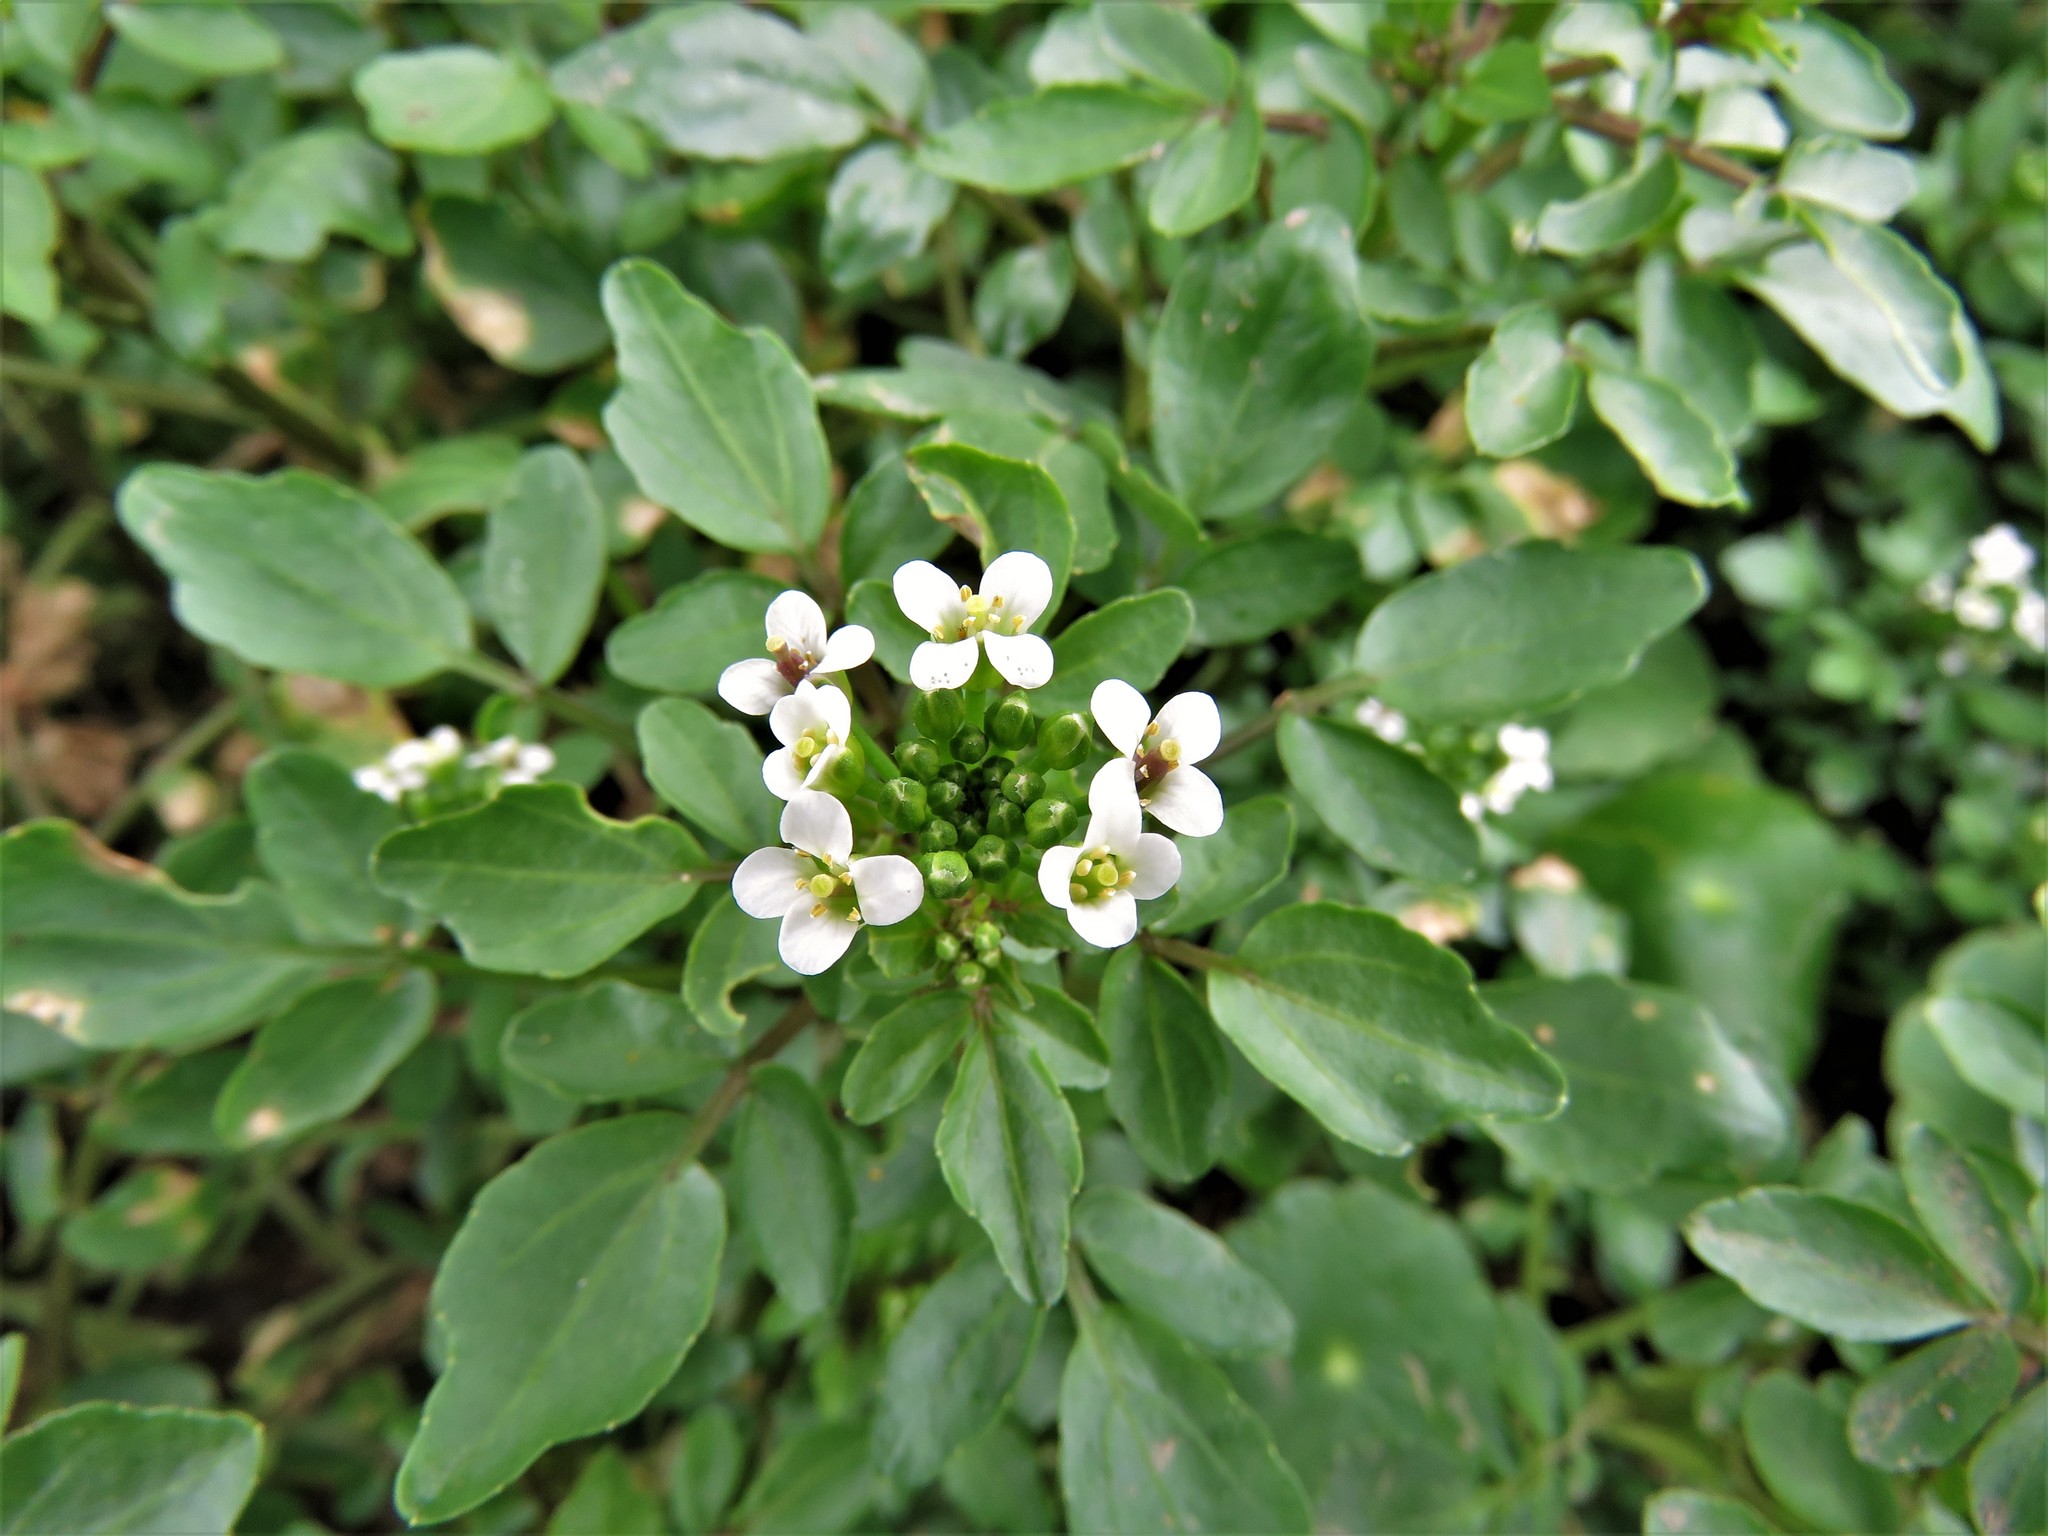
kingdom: Plantae
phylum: Tracheophyta
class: Magnoliopsida
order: Brassicales
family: Brassicaceae
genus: Nasturtium
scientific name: Nasturtium officinale
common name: Watercress
